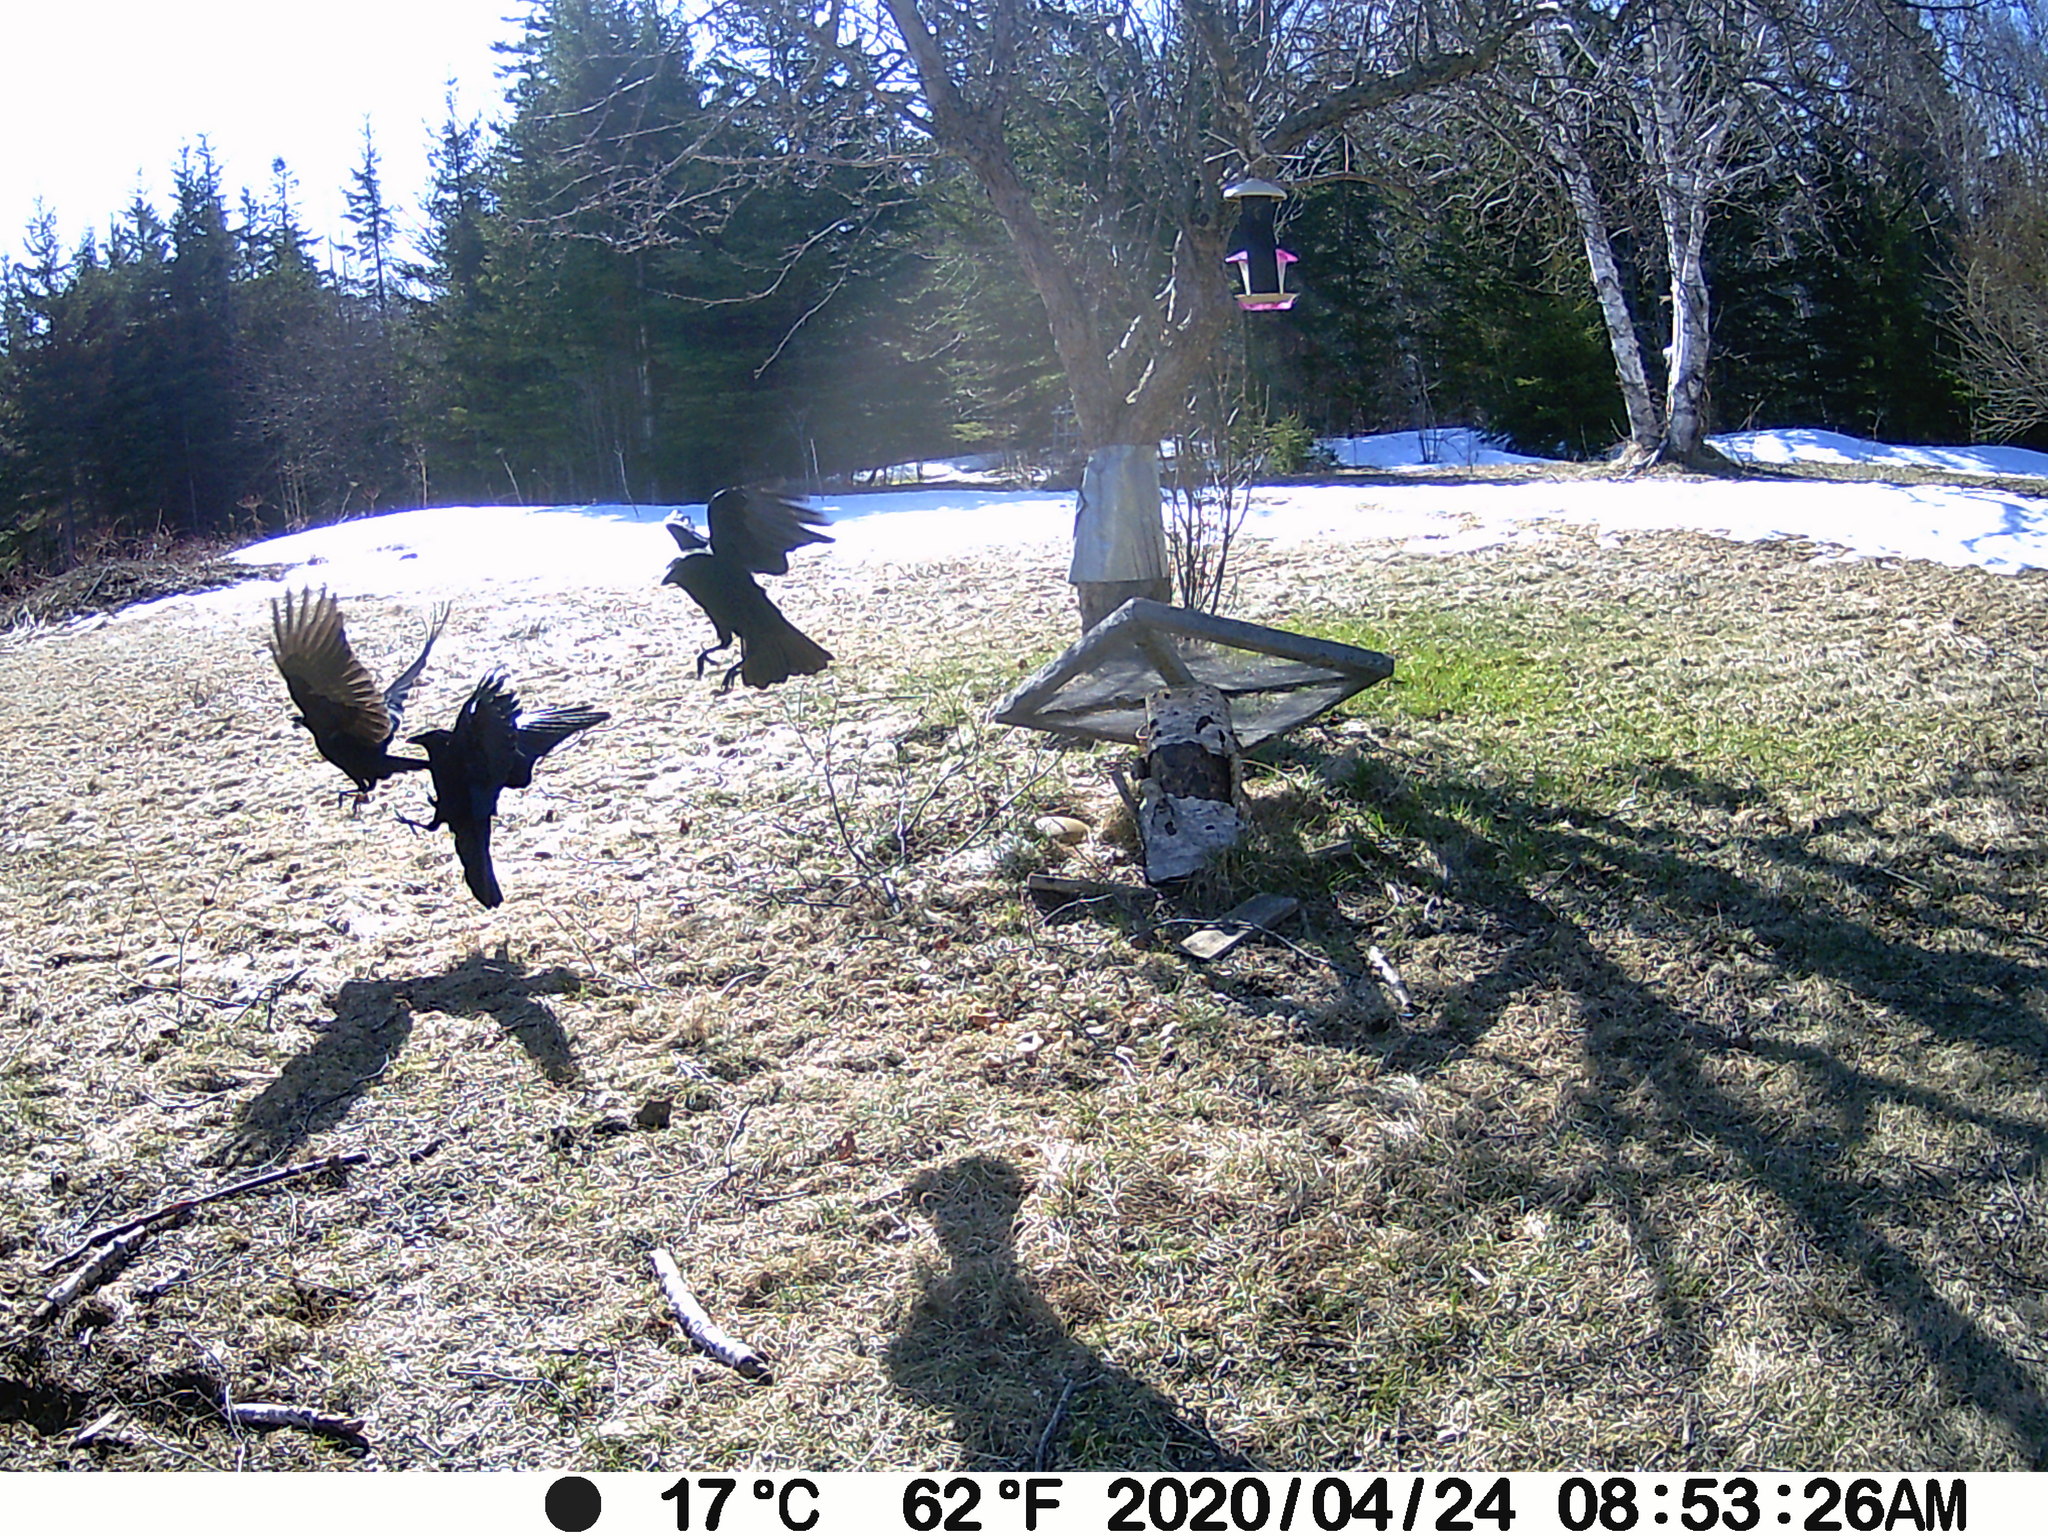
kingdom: Animalia
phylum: Chordata
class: Aves
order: Passeriformes
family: Corvidae
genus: Corvus
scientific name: Corvus brachyrhynchos
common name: American crow
